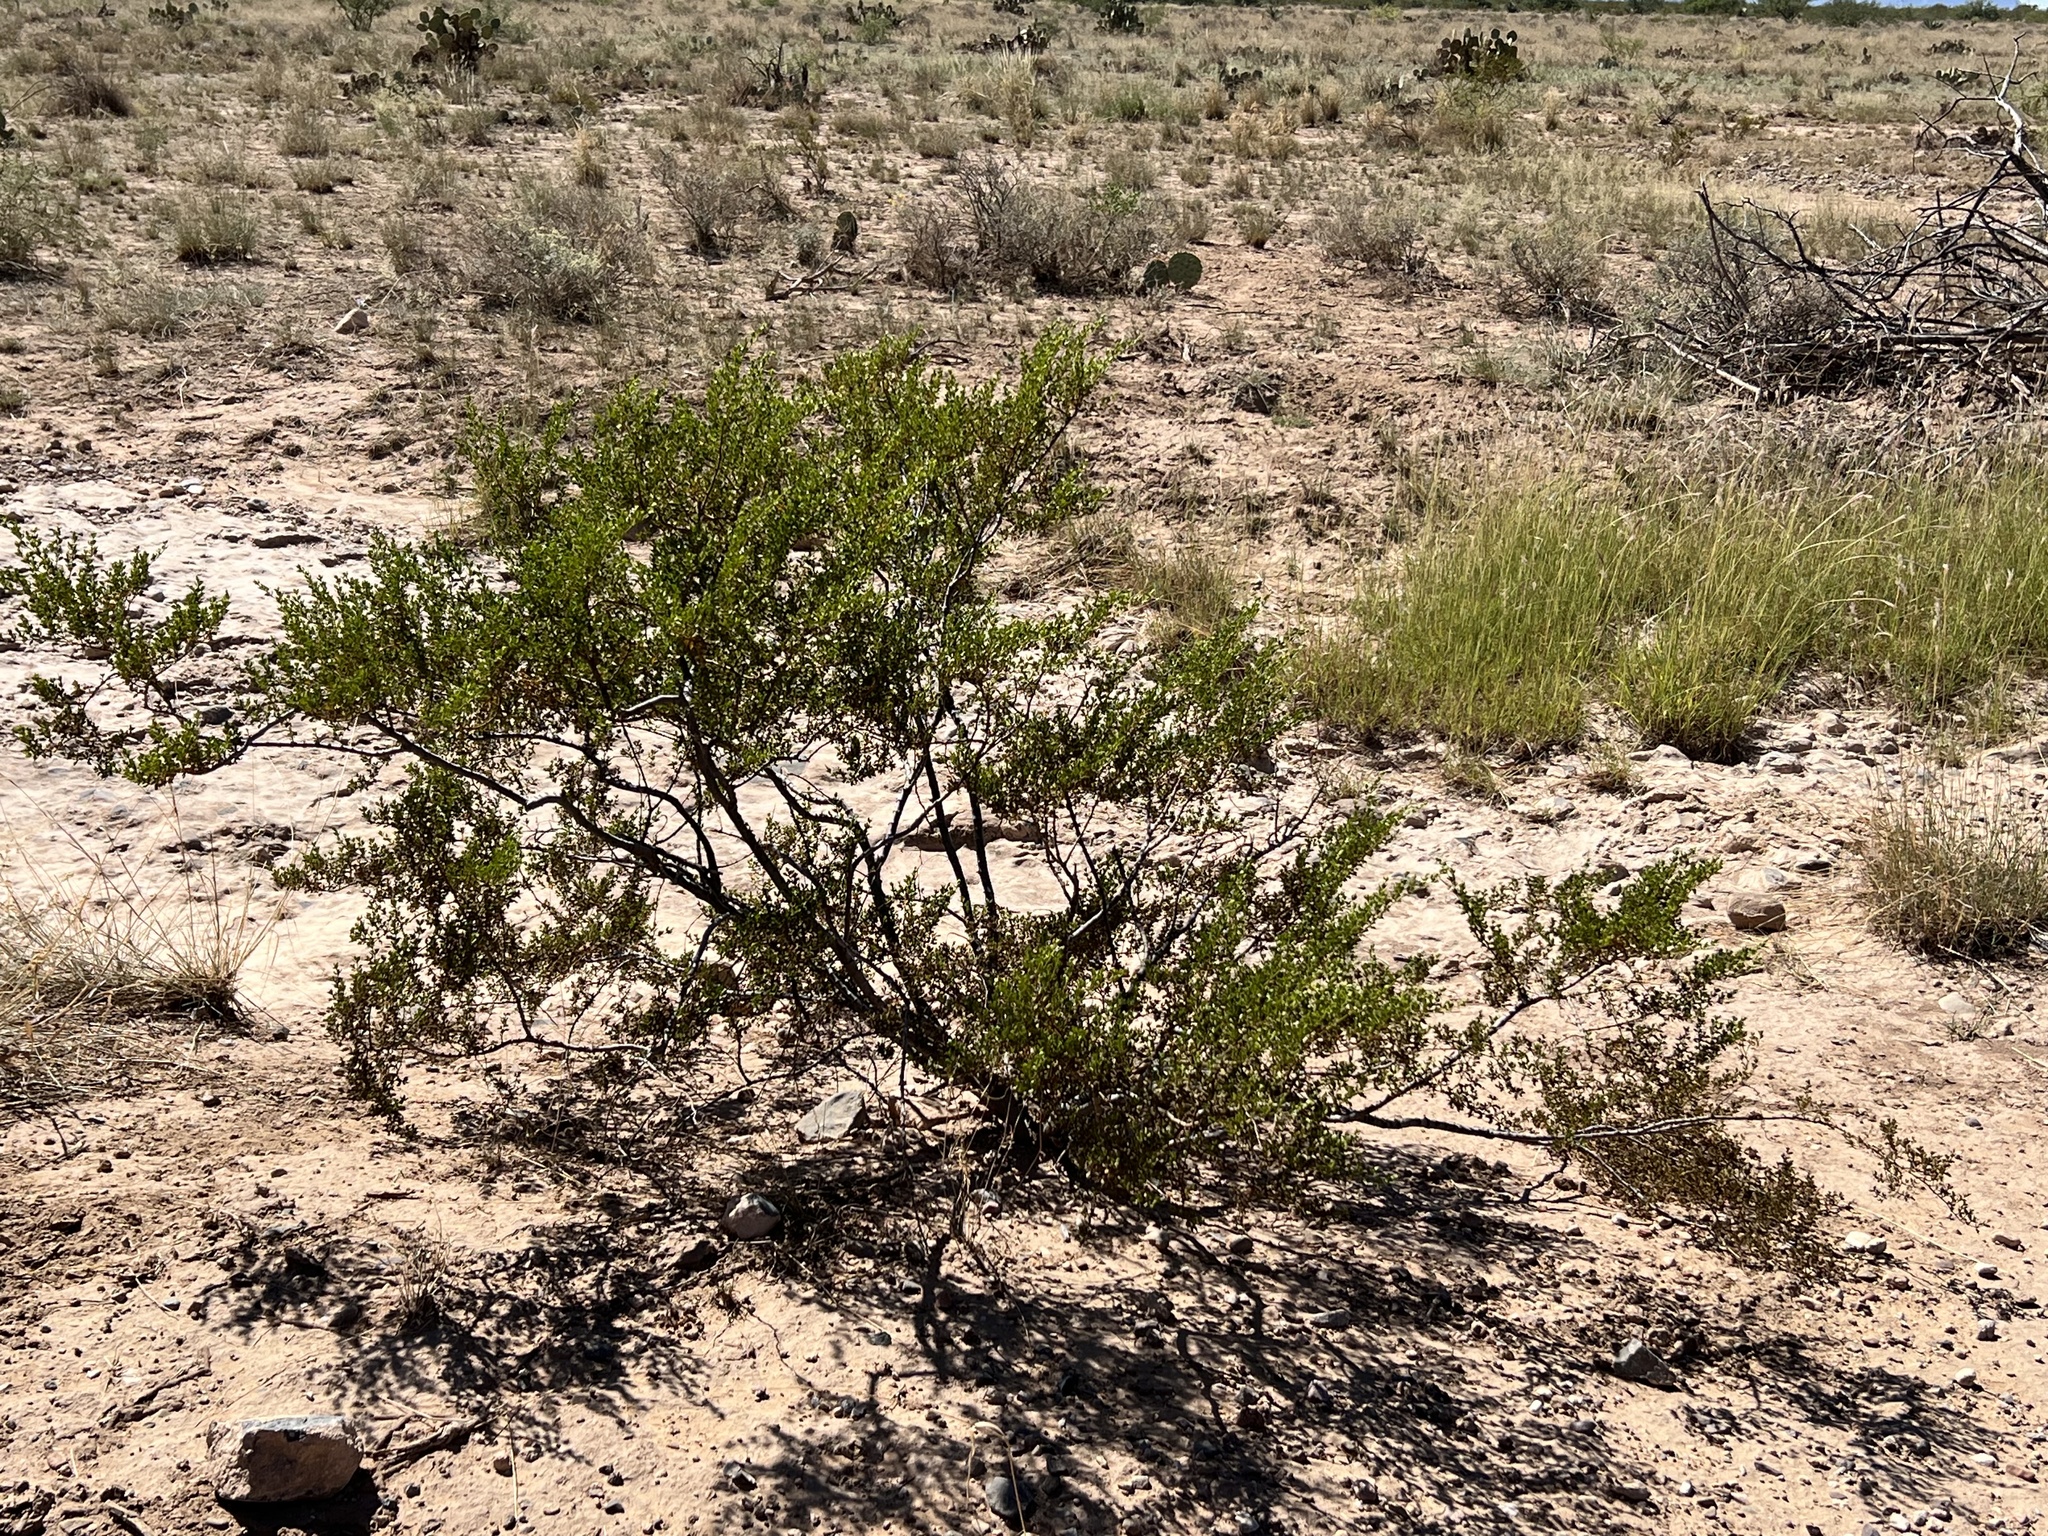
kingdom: Plantae
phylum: Tracheophyta
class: Magnoliopsida
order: Zygophyllales
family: Zygophyllaceae
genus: Larrea
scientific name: Larrea tridentata
